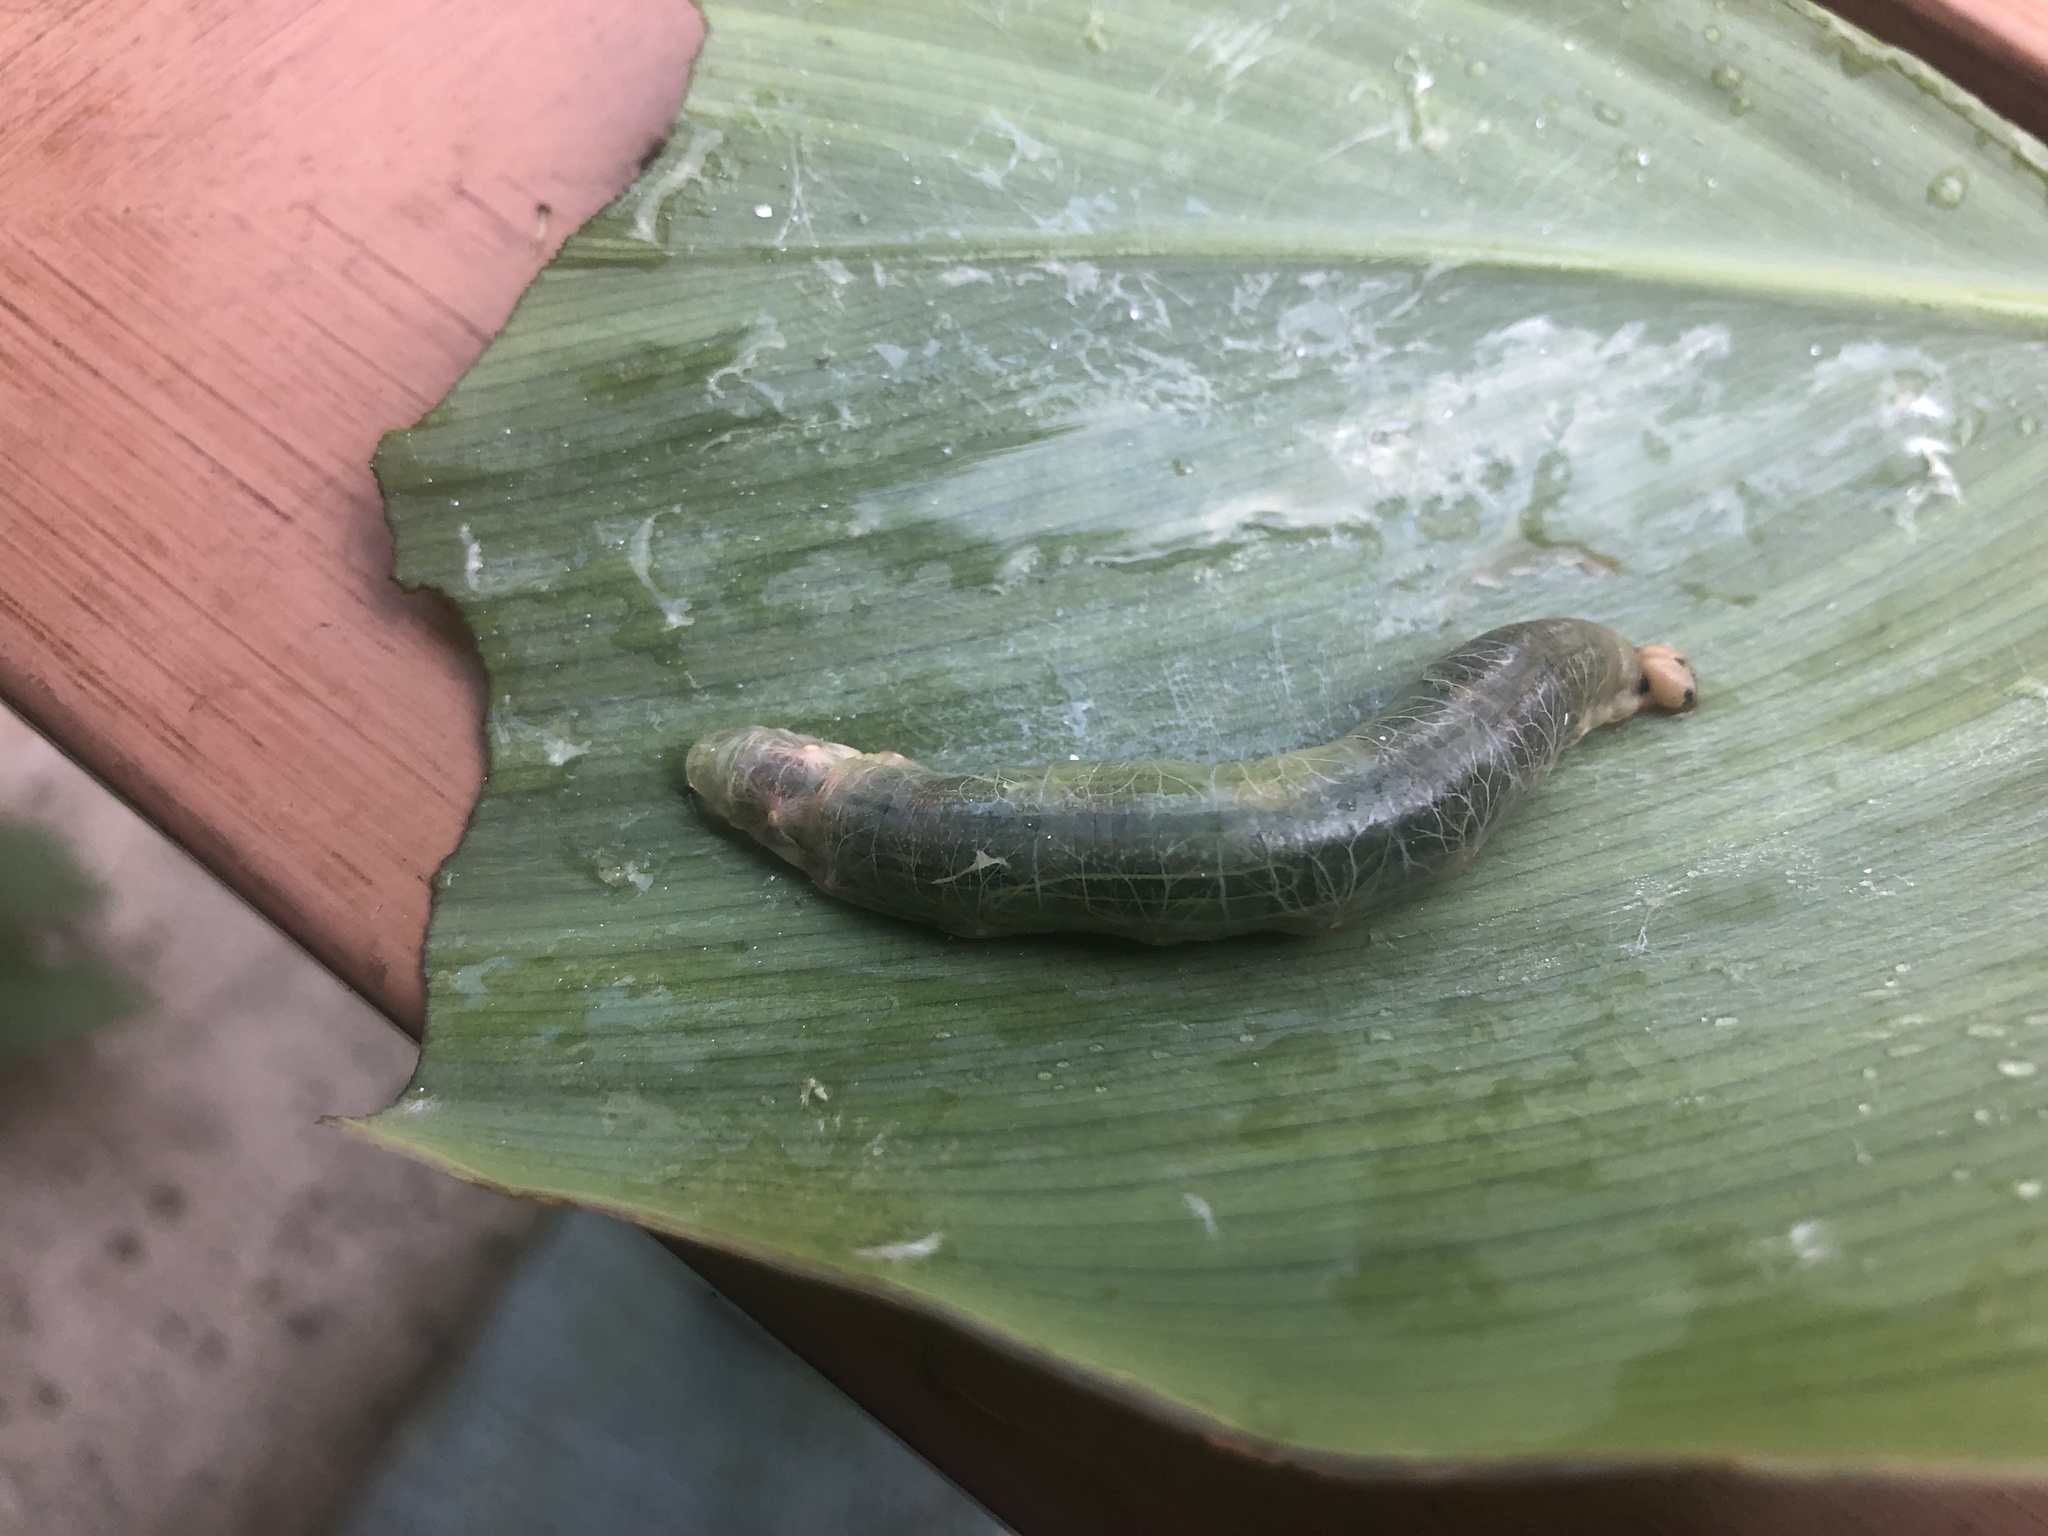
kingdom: Animalia
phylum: Arthropoda
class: Insecta
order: Lepidoptera
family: Hesperiidae
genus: Calpodes
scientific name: Calpodes ethlius
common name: Brazilian skipper
